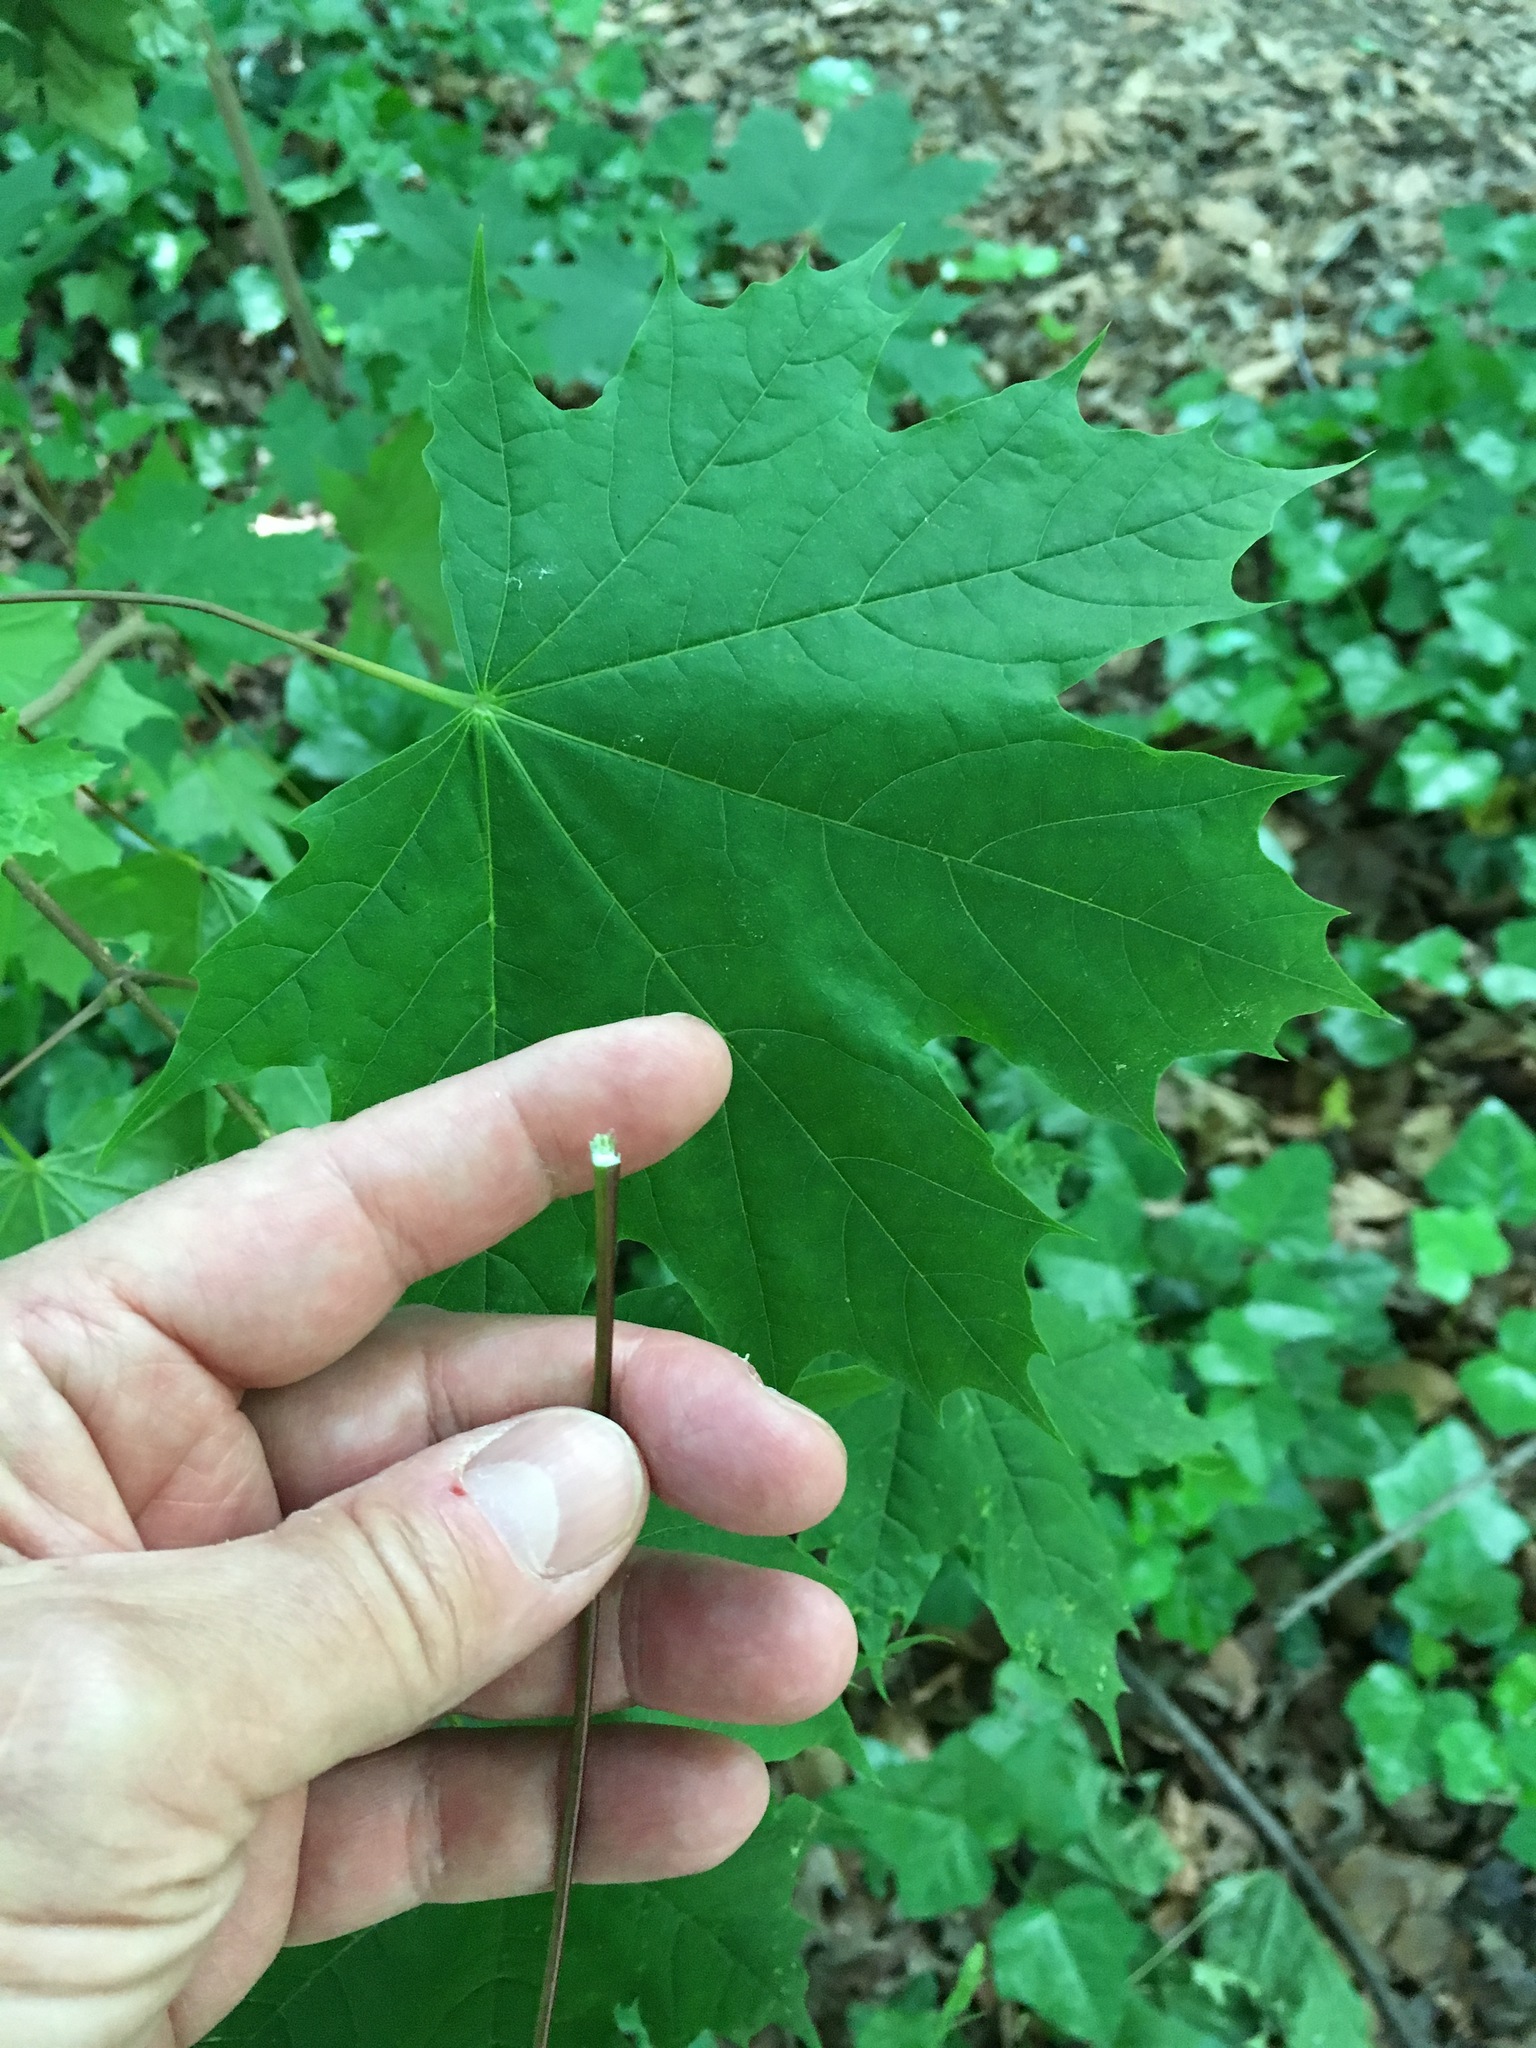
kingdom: Plantae
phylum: Tracheophyta
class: Magnoliopsida
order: Sapindales
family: Sapindaceae
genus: Acer
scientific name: Acer platanoides
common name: Norway maple
